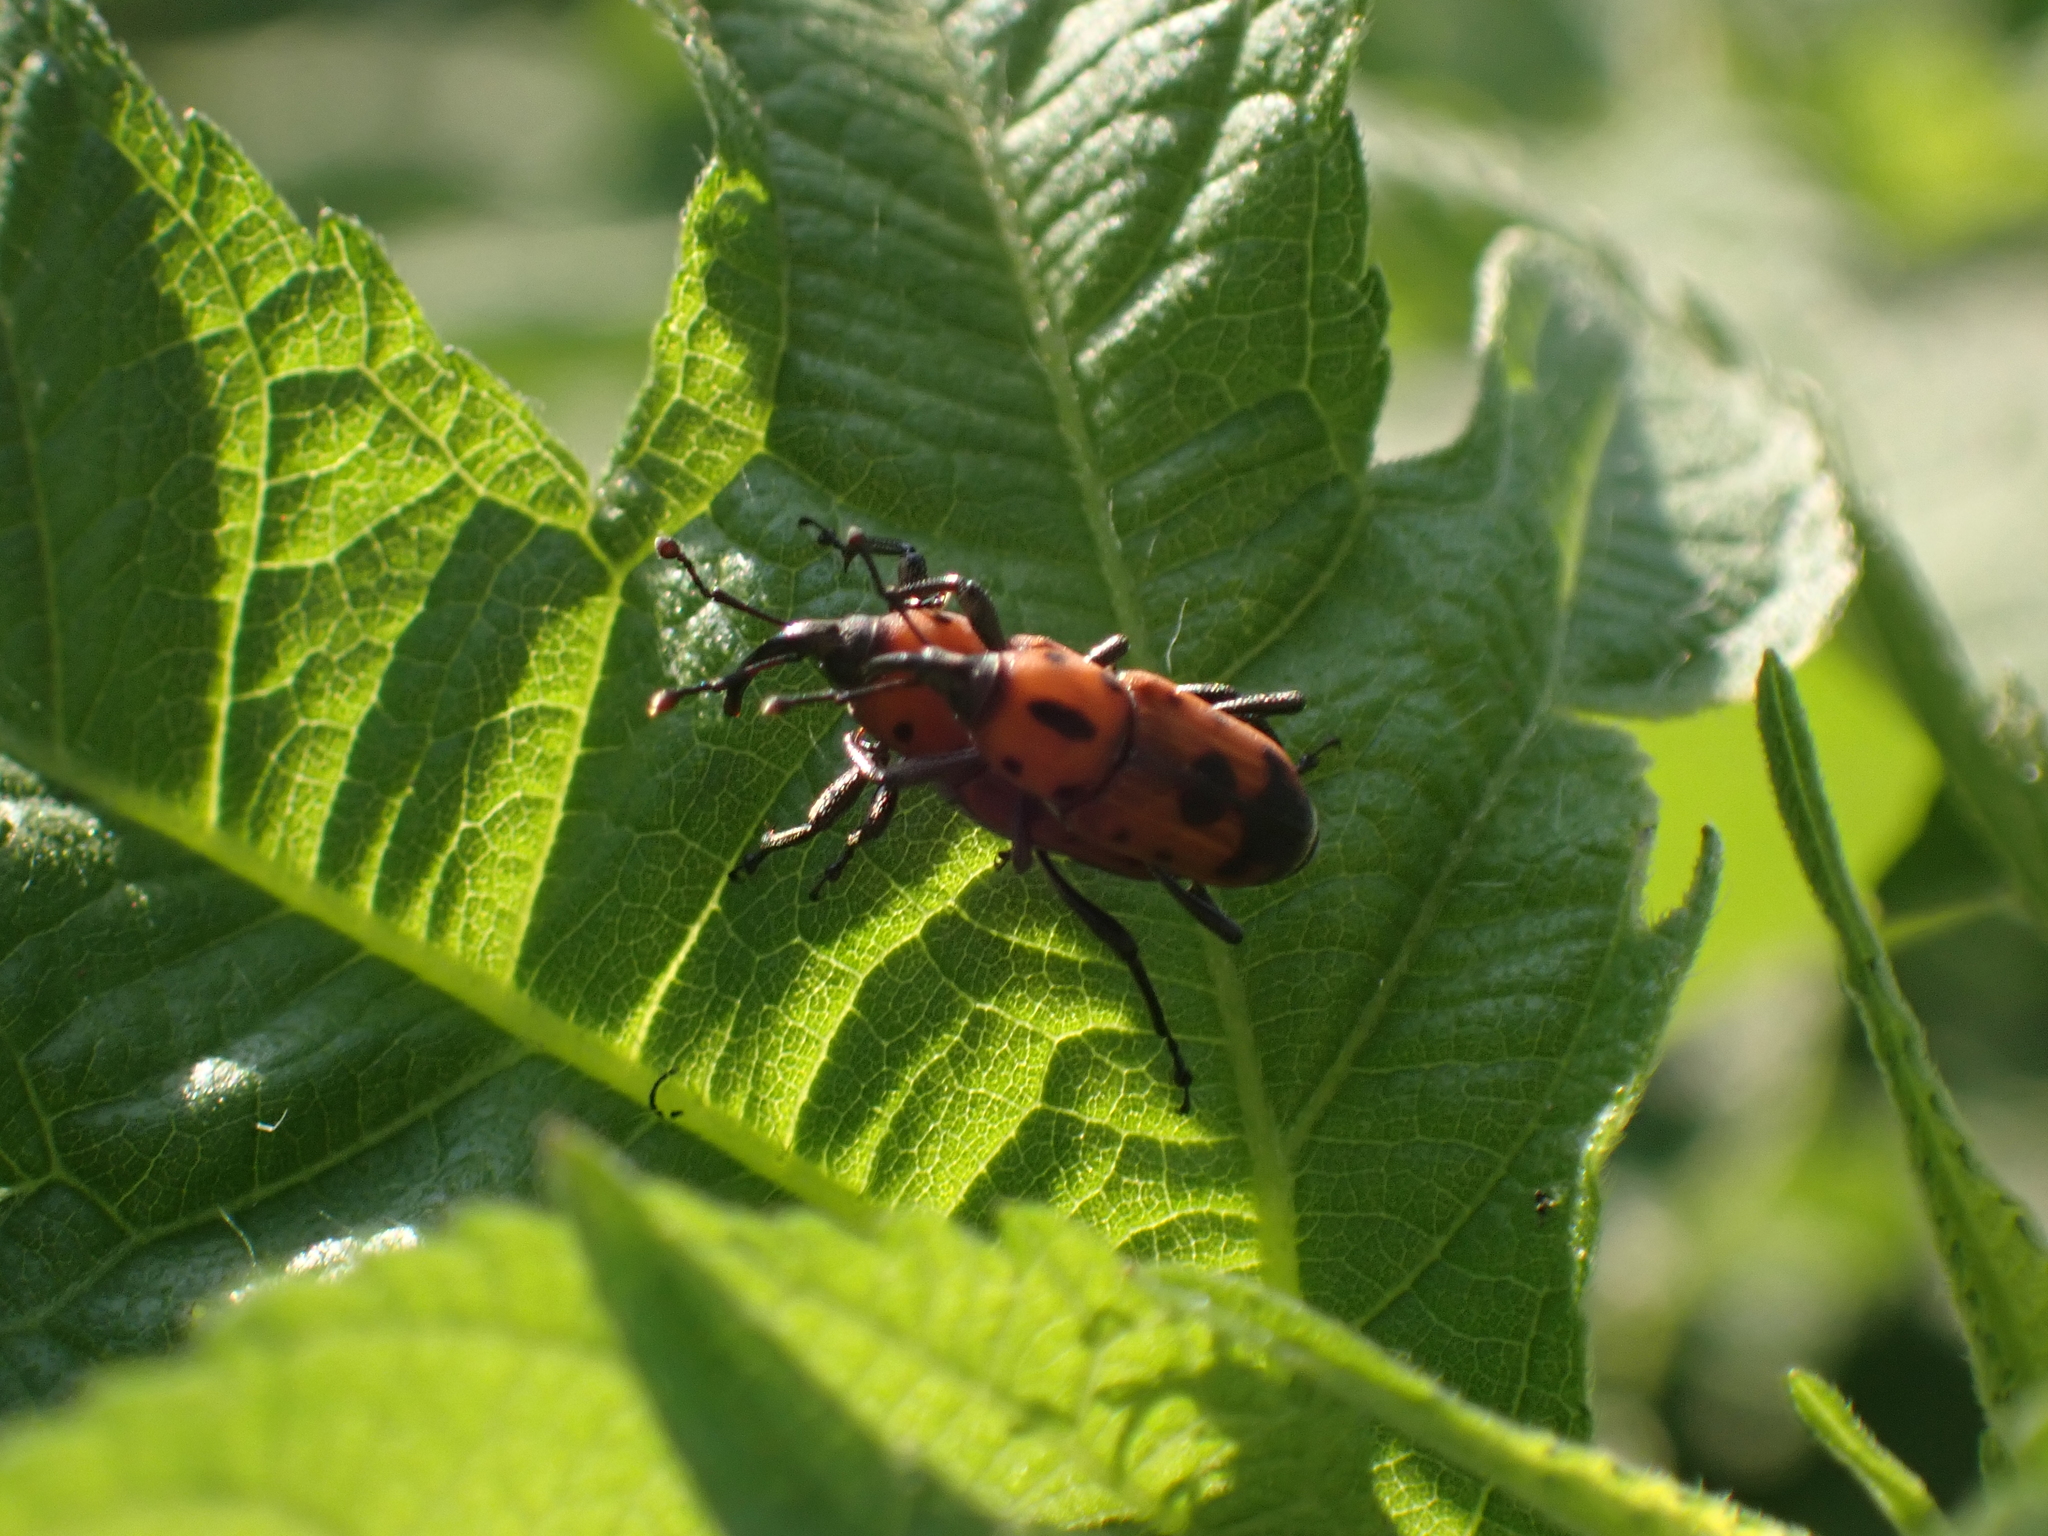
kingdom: Animalia
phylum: Arthropoda
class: Insecta
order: Coleoptera
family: Dryophthoridae
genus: Rhodobaenus
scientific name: Rhodobaenus quinquepunctatus
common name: Cocklebur weevil
